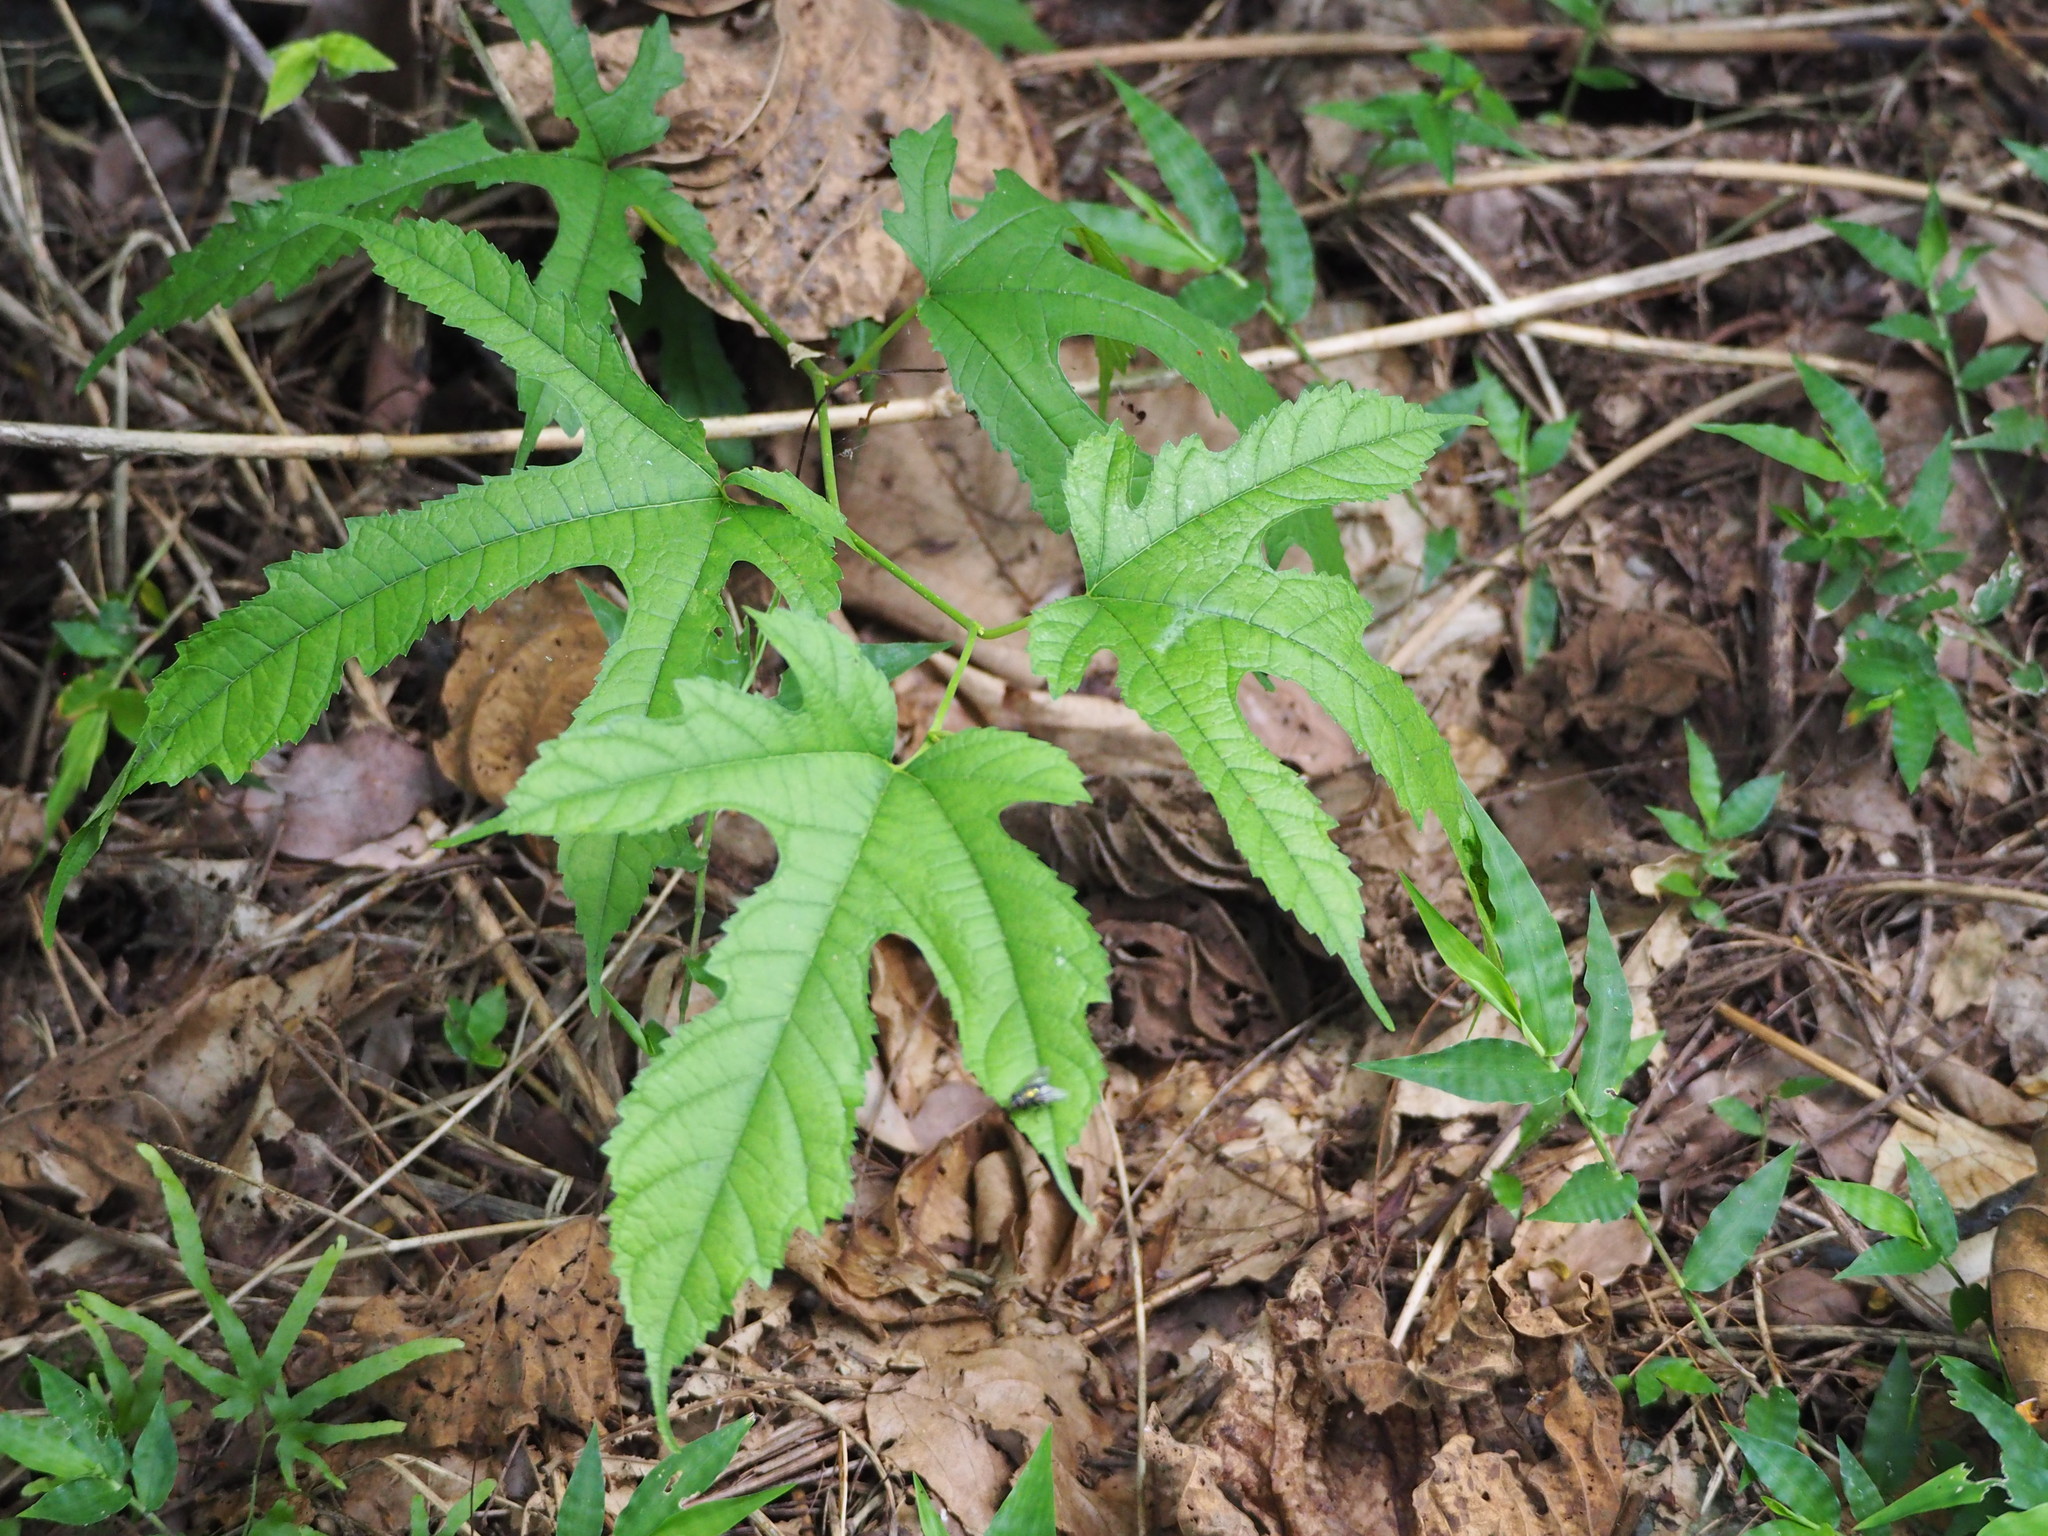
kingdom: Plantae
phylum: Tracheophyta
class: Magnoliopsida
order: Rosales
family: Moraceae
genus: Morus
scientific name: Morus indica
